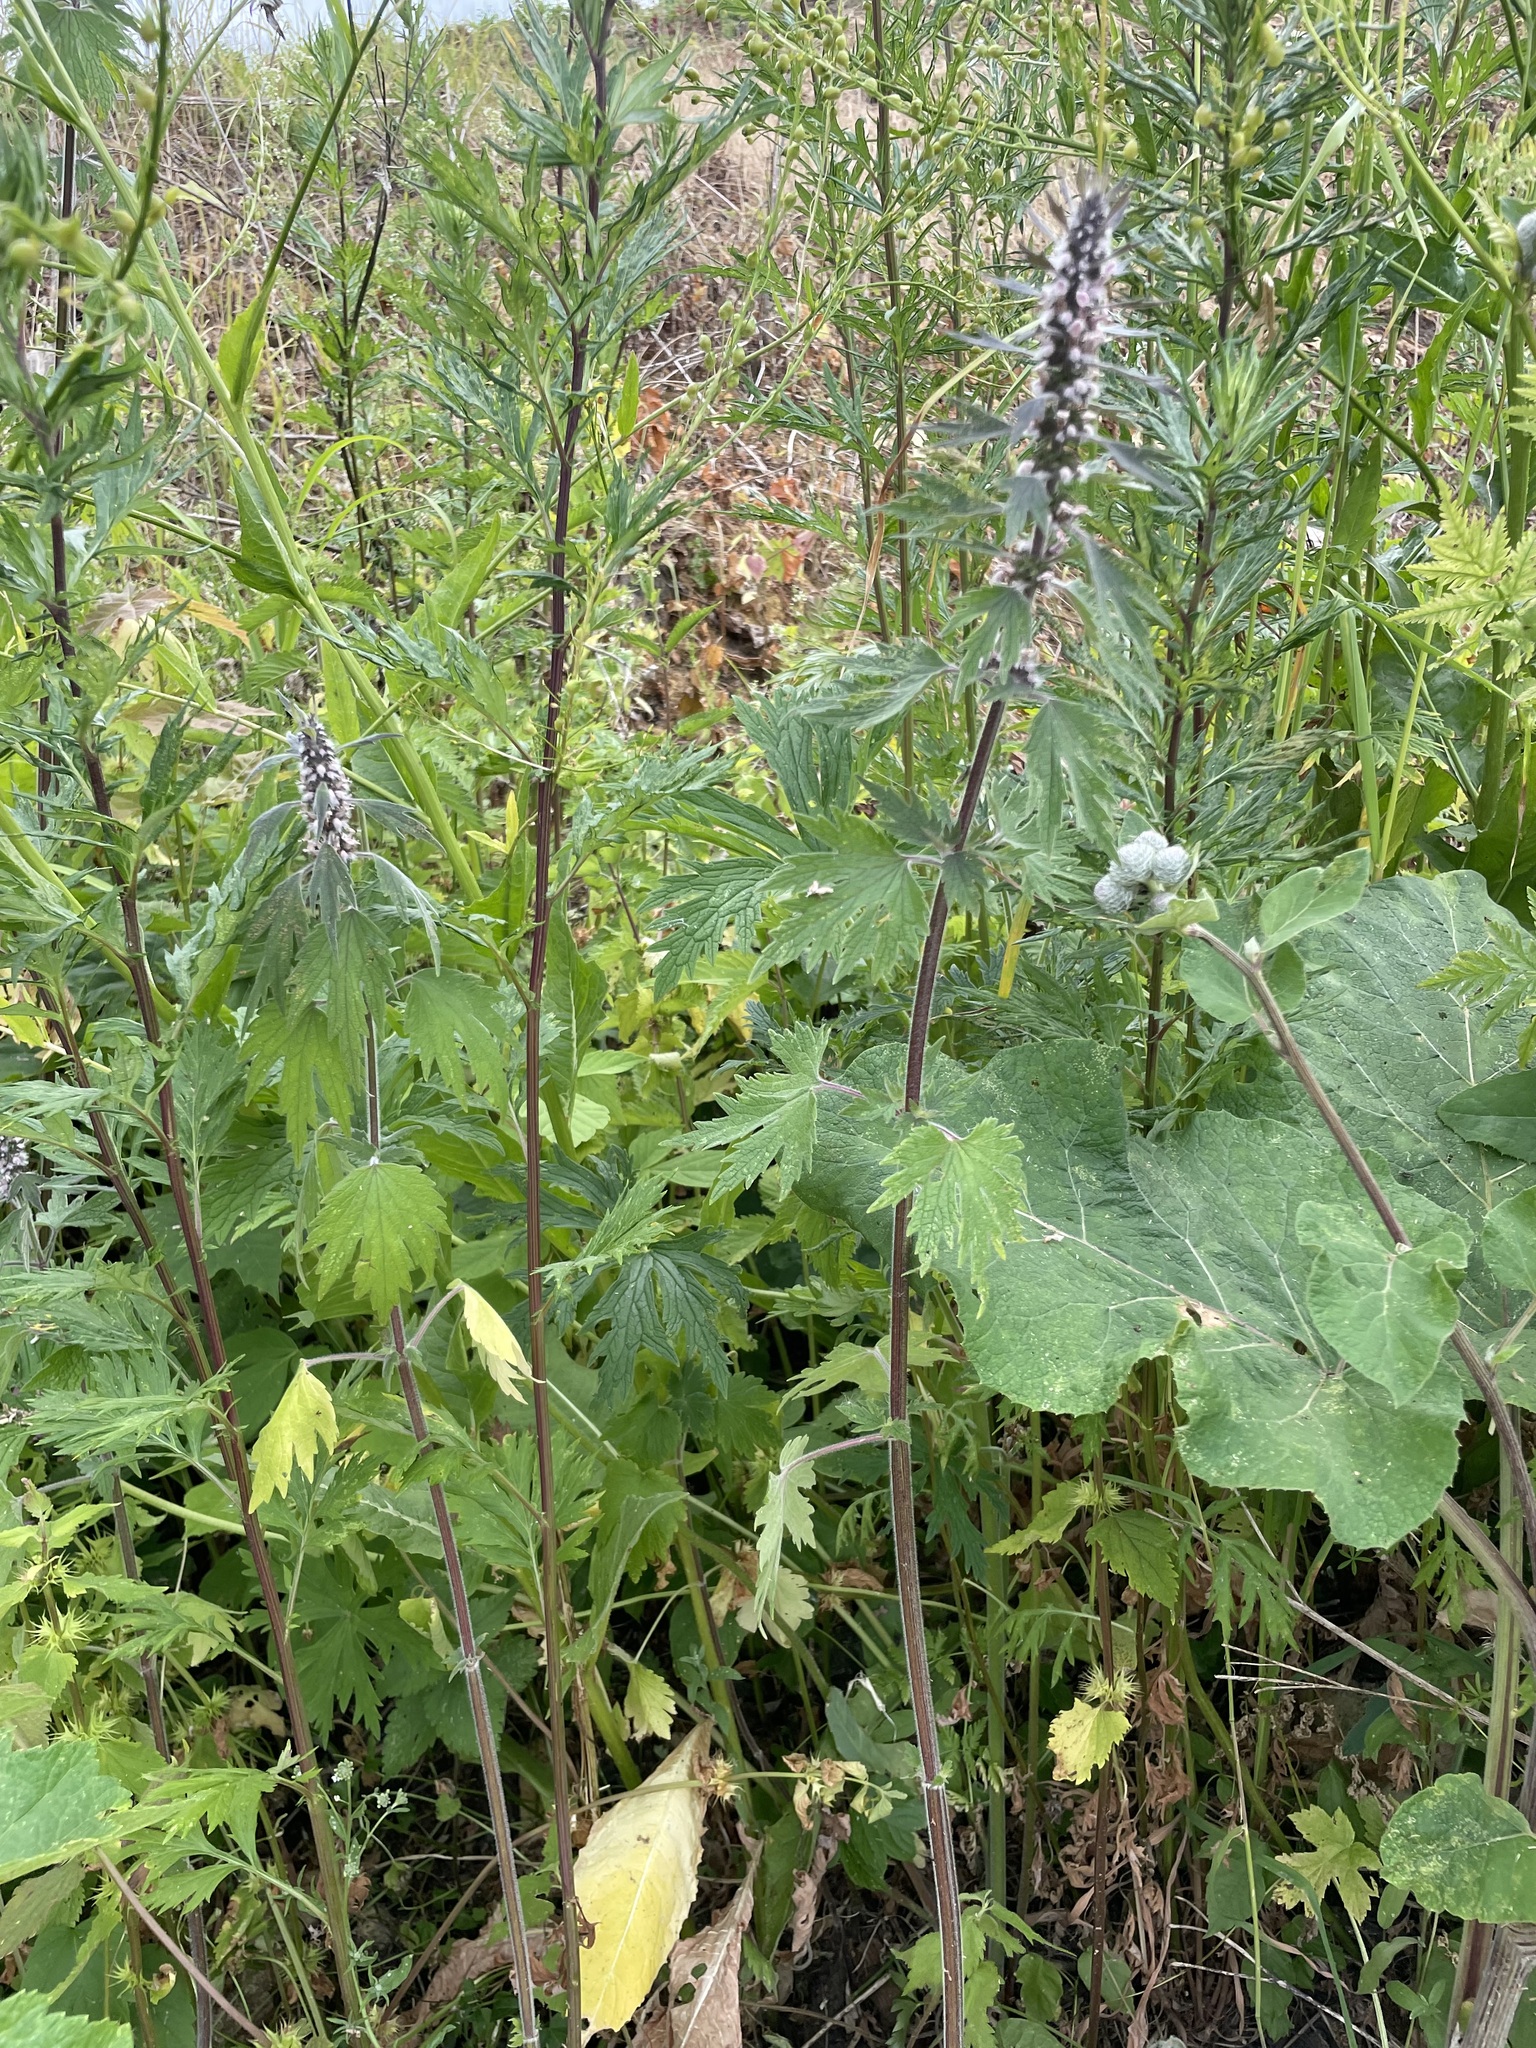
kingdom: Plantae
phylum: Tracheophyta
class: Magnoliopsida
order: Lamiales
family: Lamiaceae
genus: Leonurus
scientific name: Leonurus quinquelobatus
